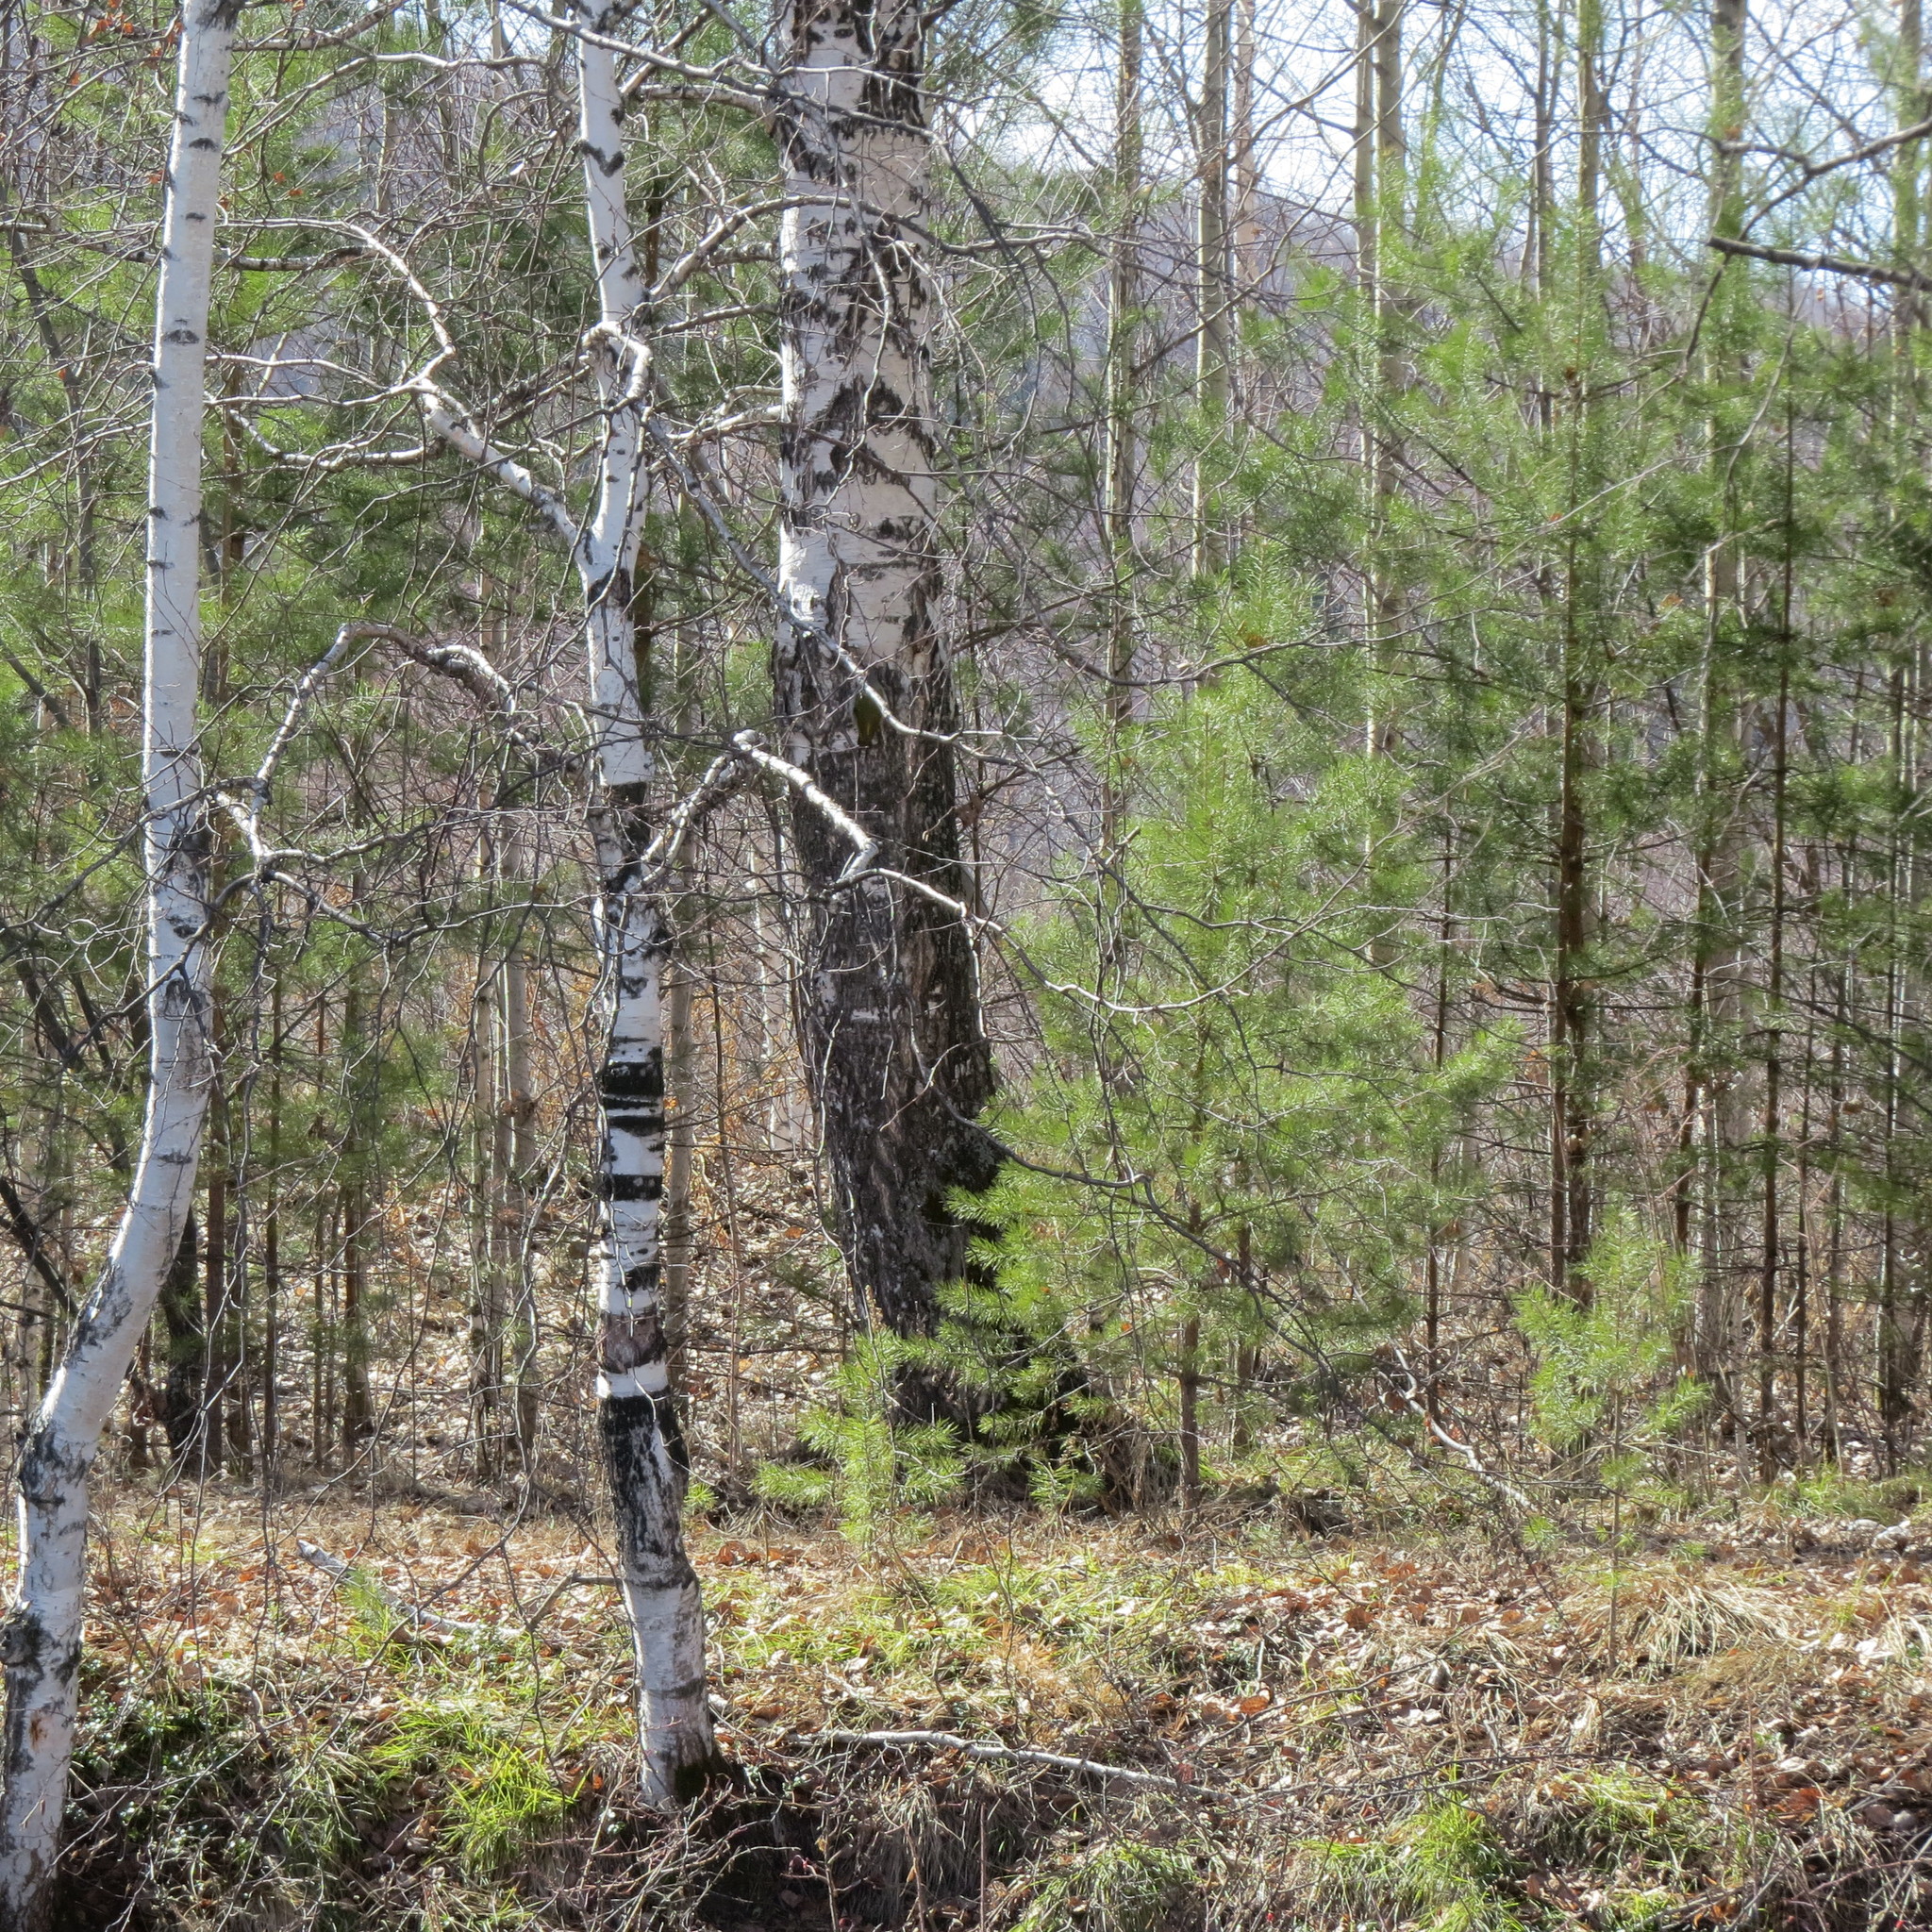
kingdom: Animalia
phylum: Chordata
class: Aves
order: Piciformes
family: Picidae
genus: Picus
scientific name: Picus canus
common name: Grey-headed woodpecker
